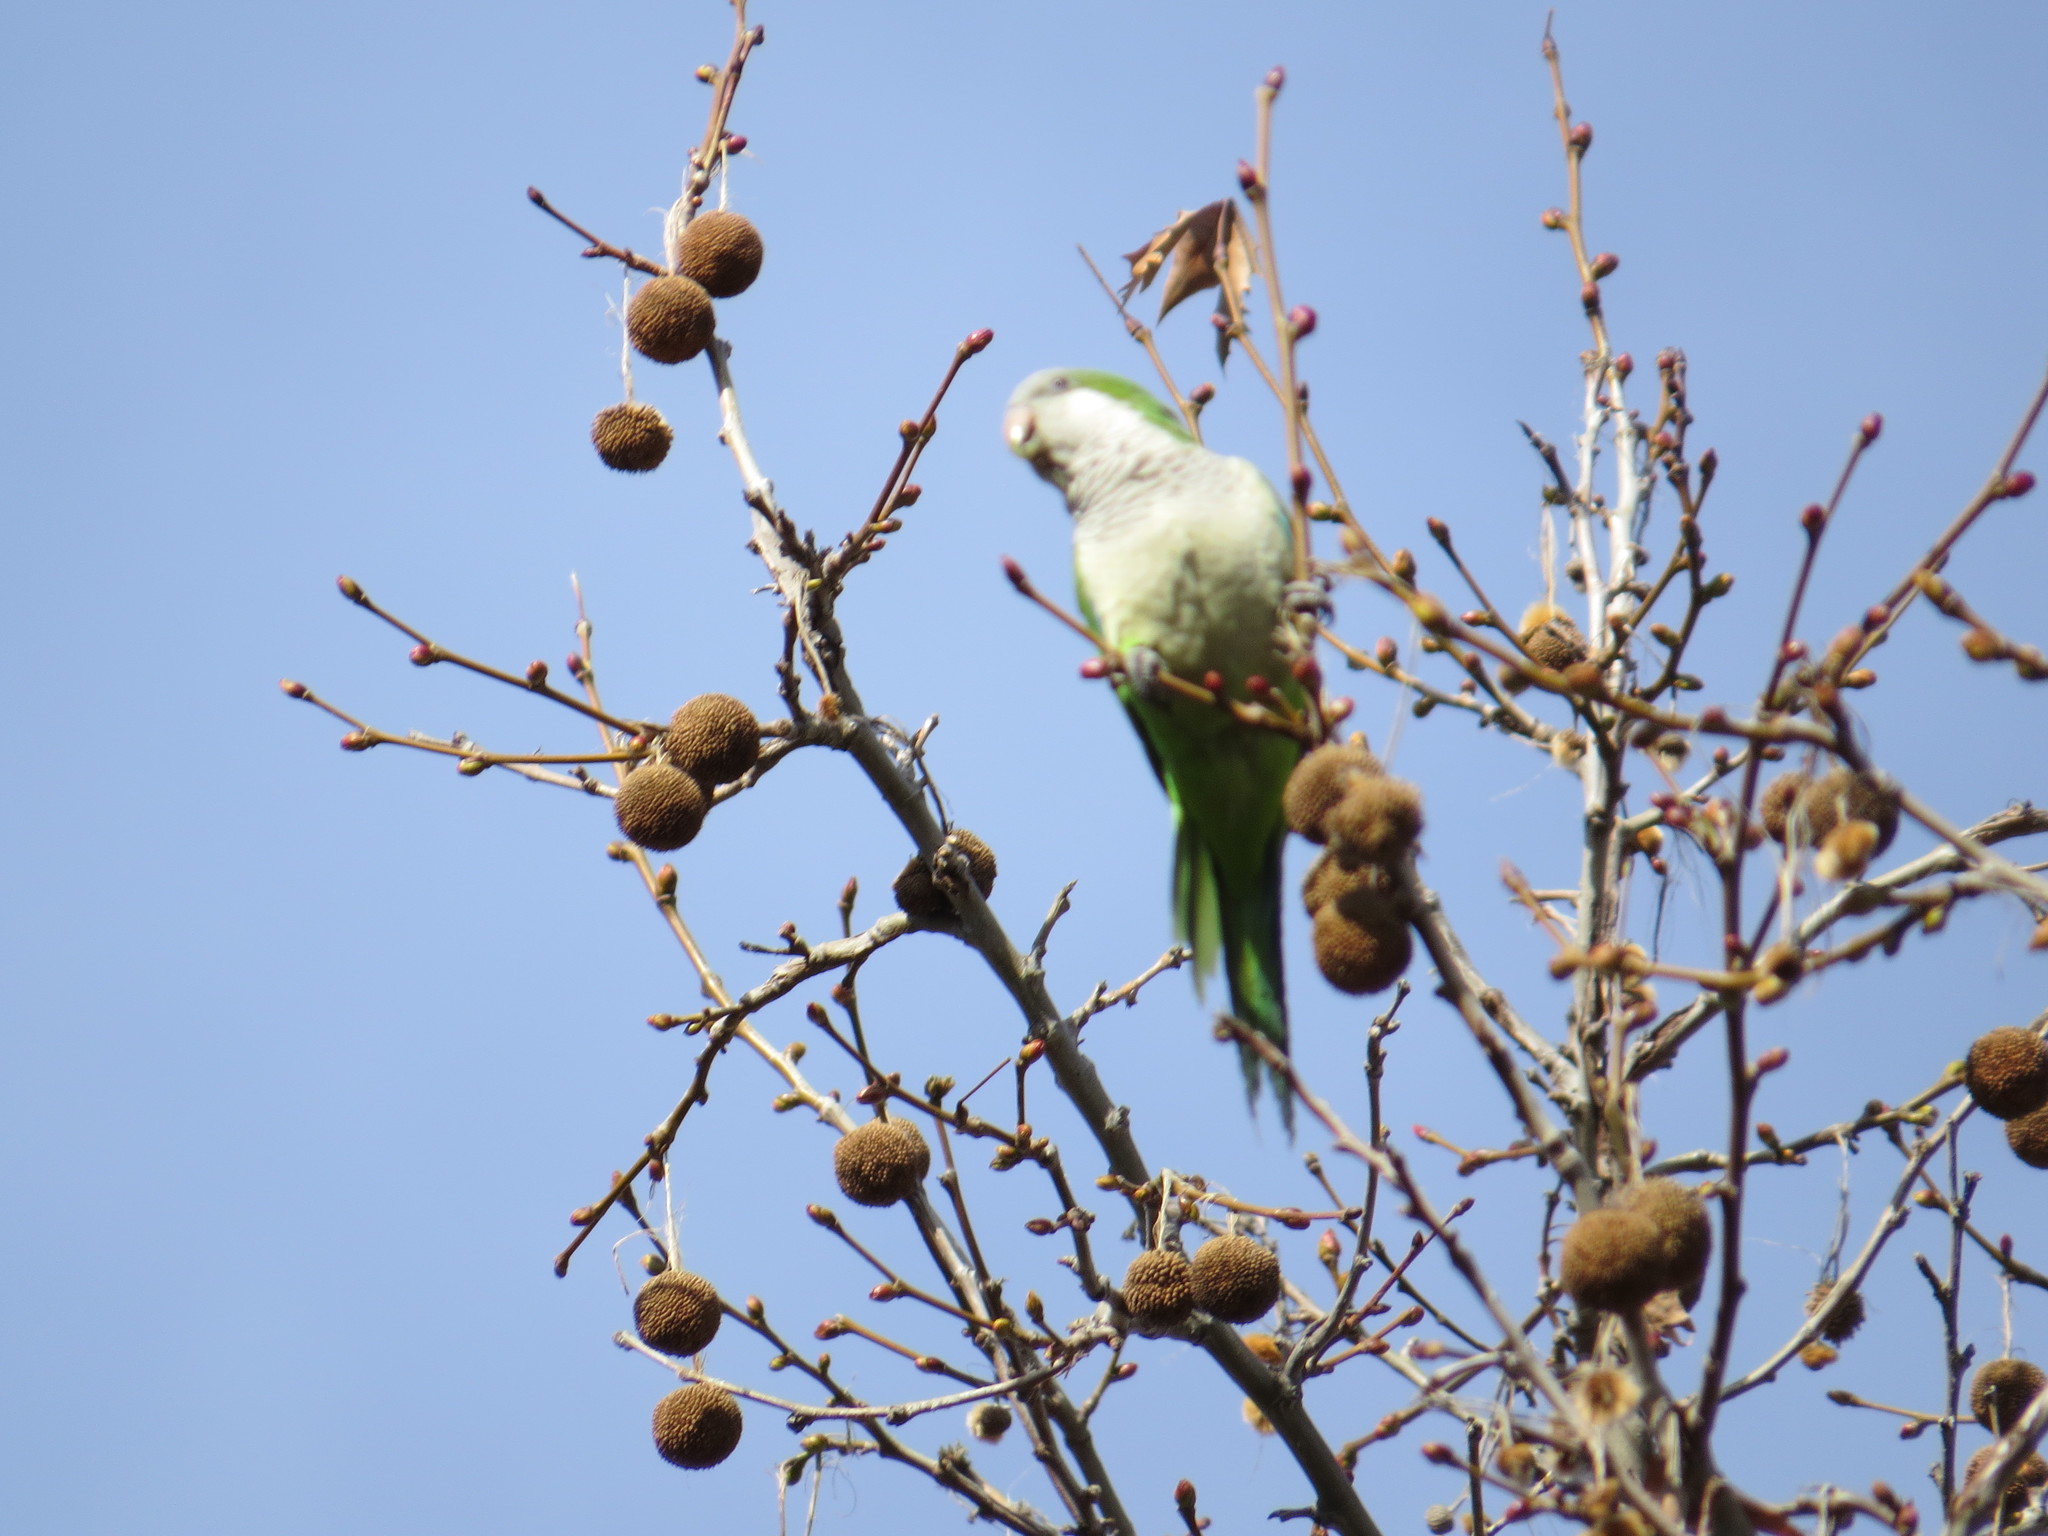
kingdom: Animalia
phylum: Chordata
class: Aves
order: Psittaciformes
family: Psittacidae
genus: Myiopsitta
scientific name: Myiopsitta monachus
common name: Monk parakeet
